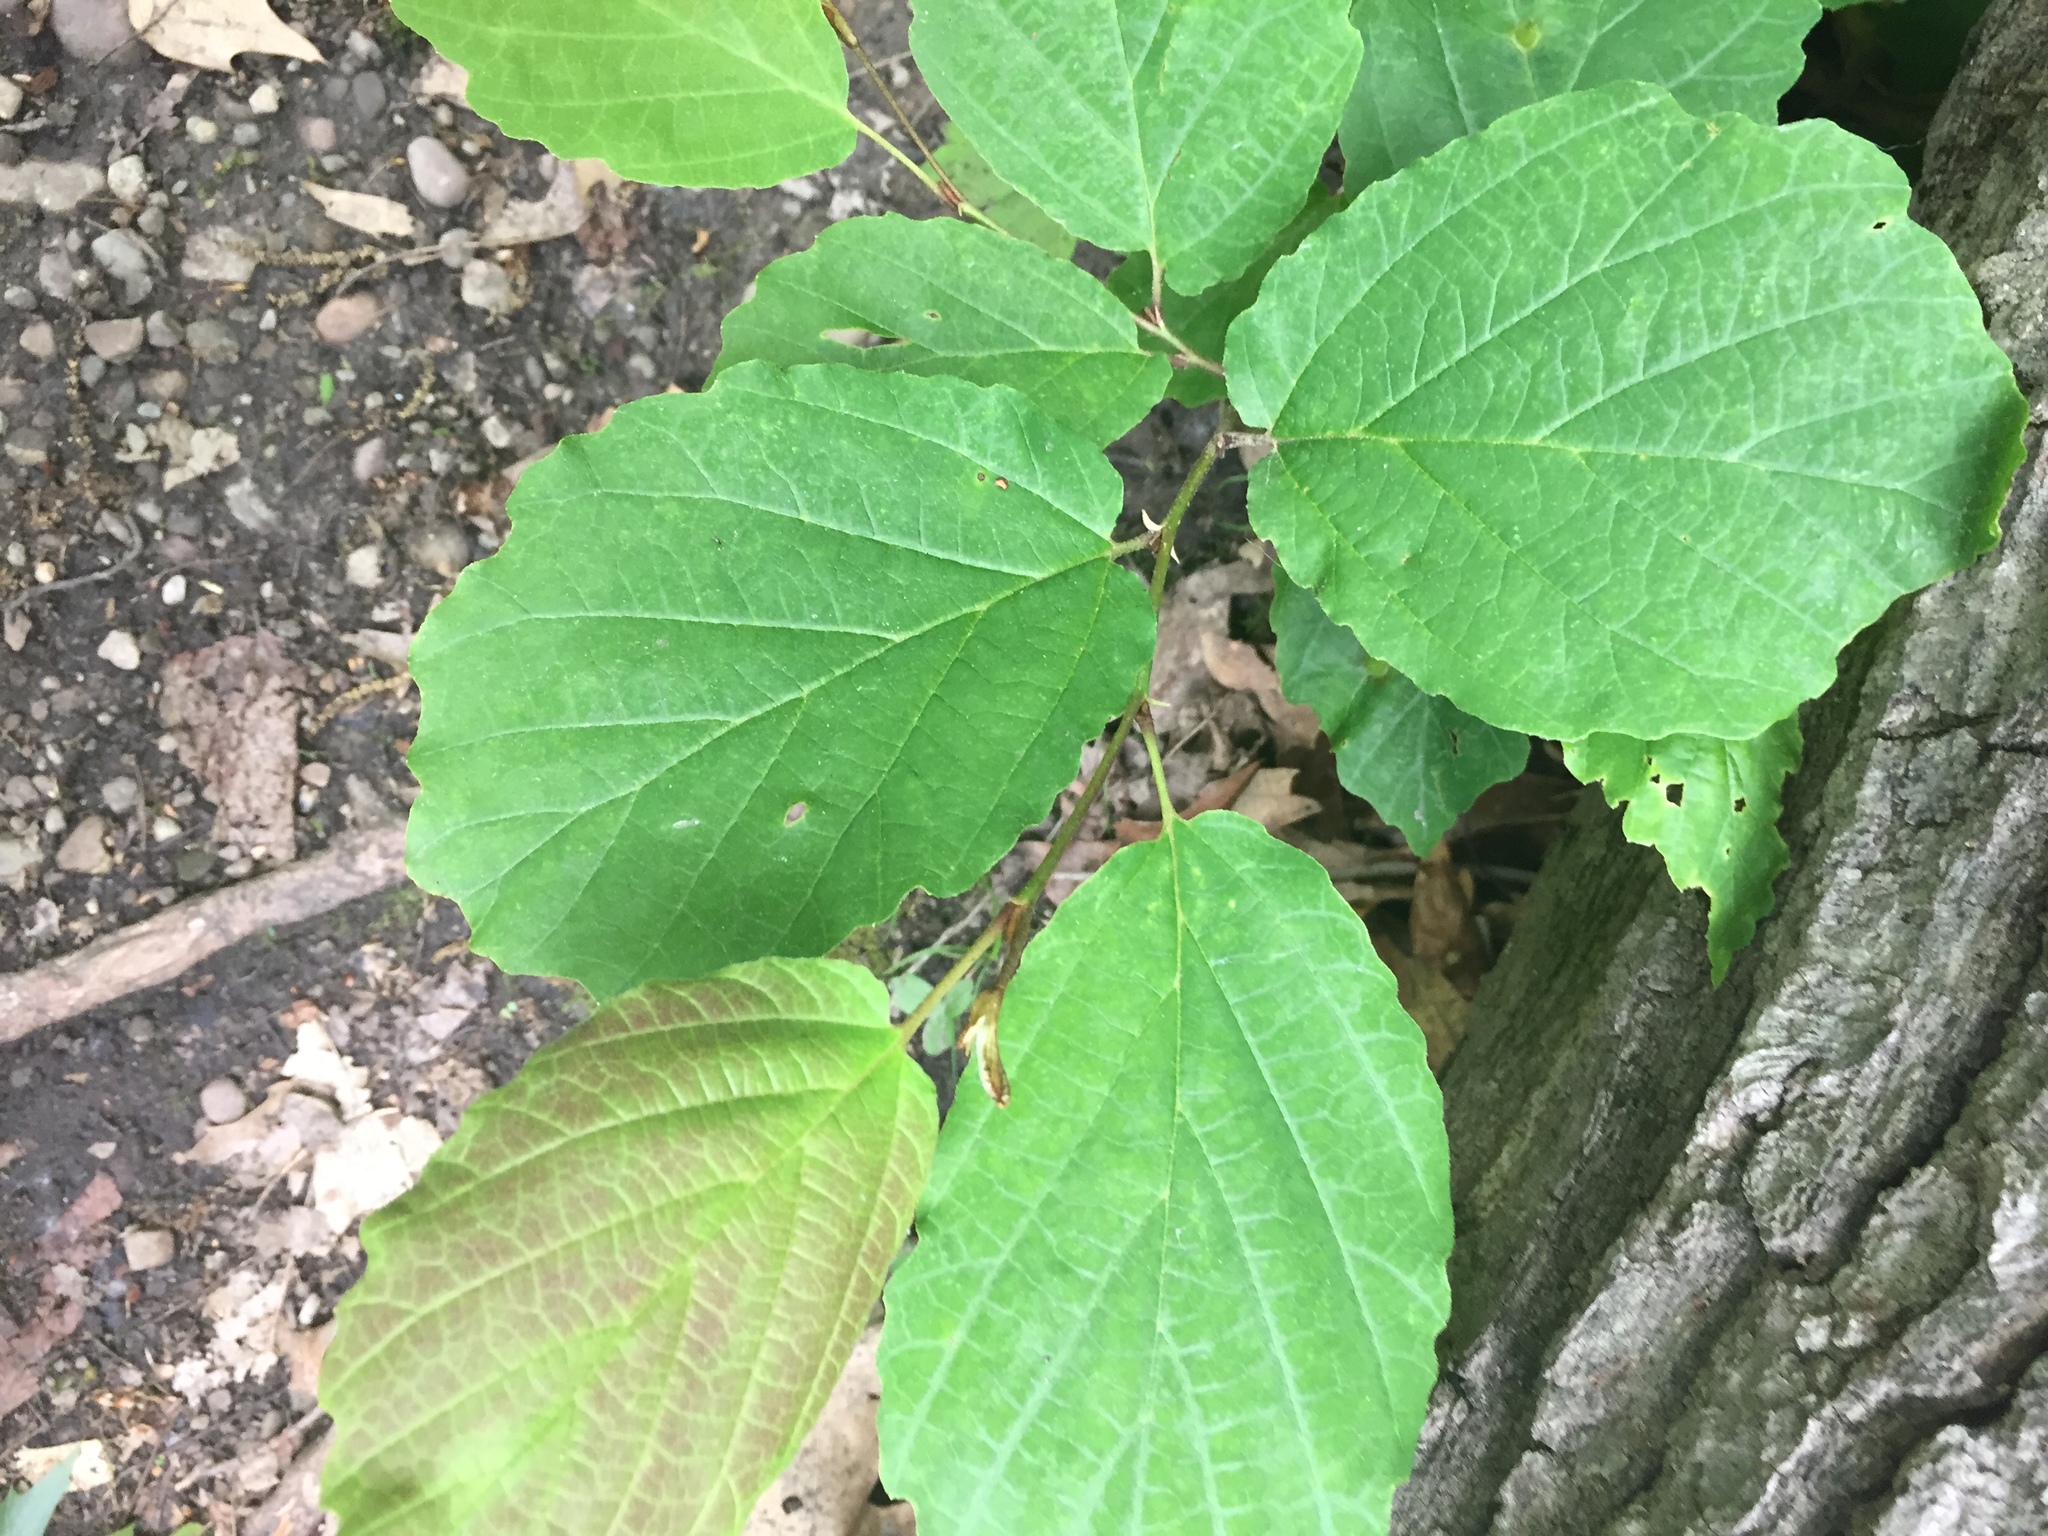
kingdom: Plantae
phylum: Tracheophyta
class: Magnoliopsida
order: Saxifragales
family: Hamamelidaceae
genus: Hamamelis
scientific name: Hamamelis virginiana
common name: Witch-hazel
